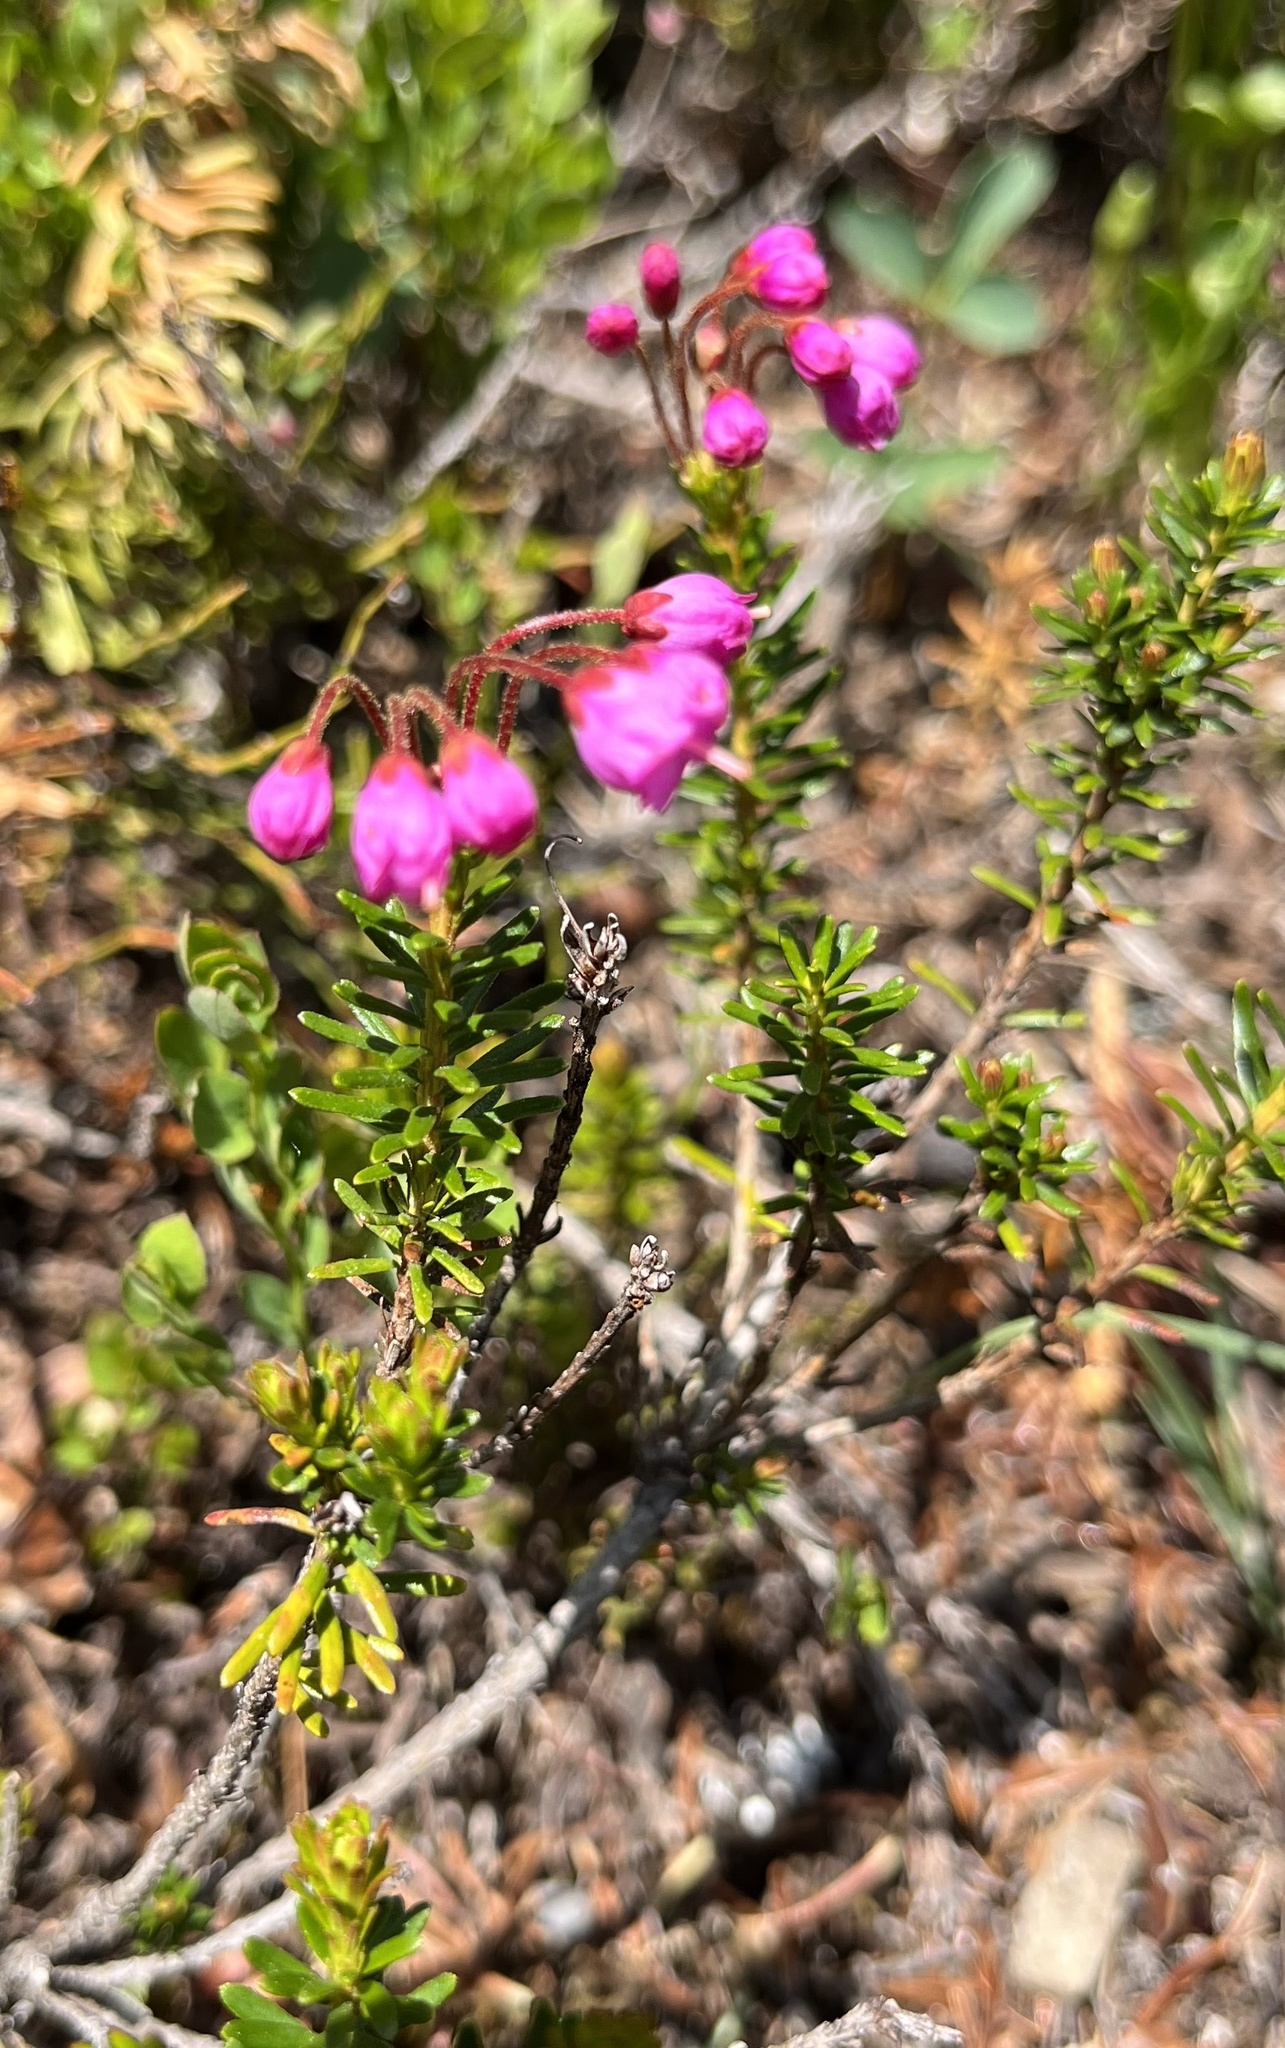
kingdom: Plantae
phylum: Tracheophyta
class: Magnoliopsida
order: Ericales
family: Ericaceae
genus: Phyllodoce
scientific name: Phyllodoce empetriformis
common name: Pink mountain heather
